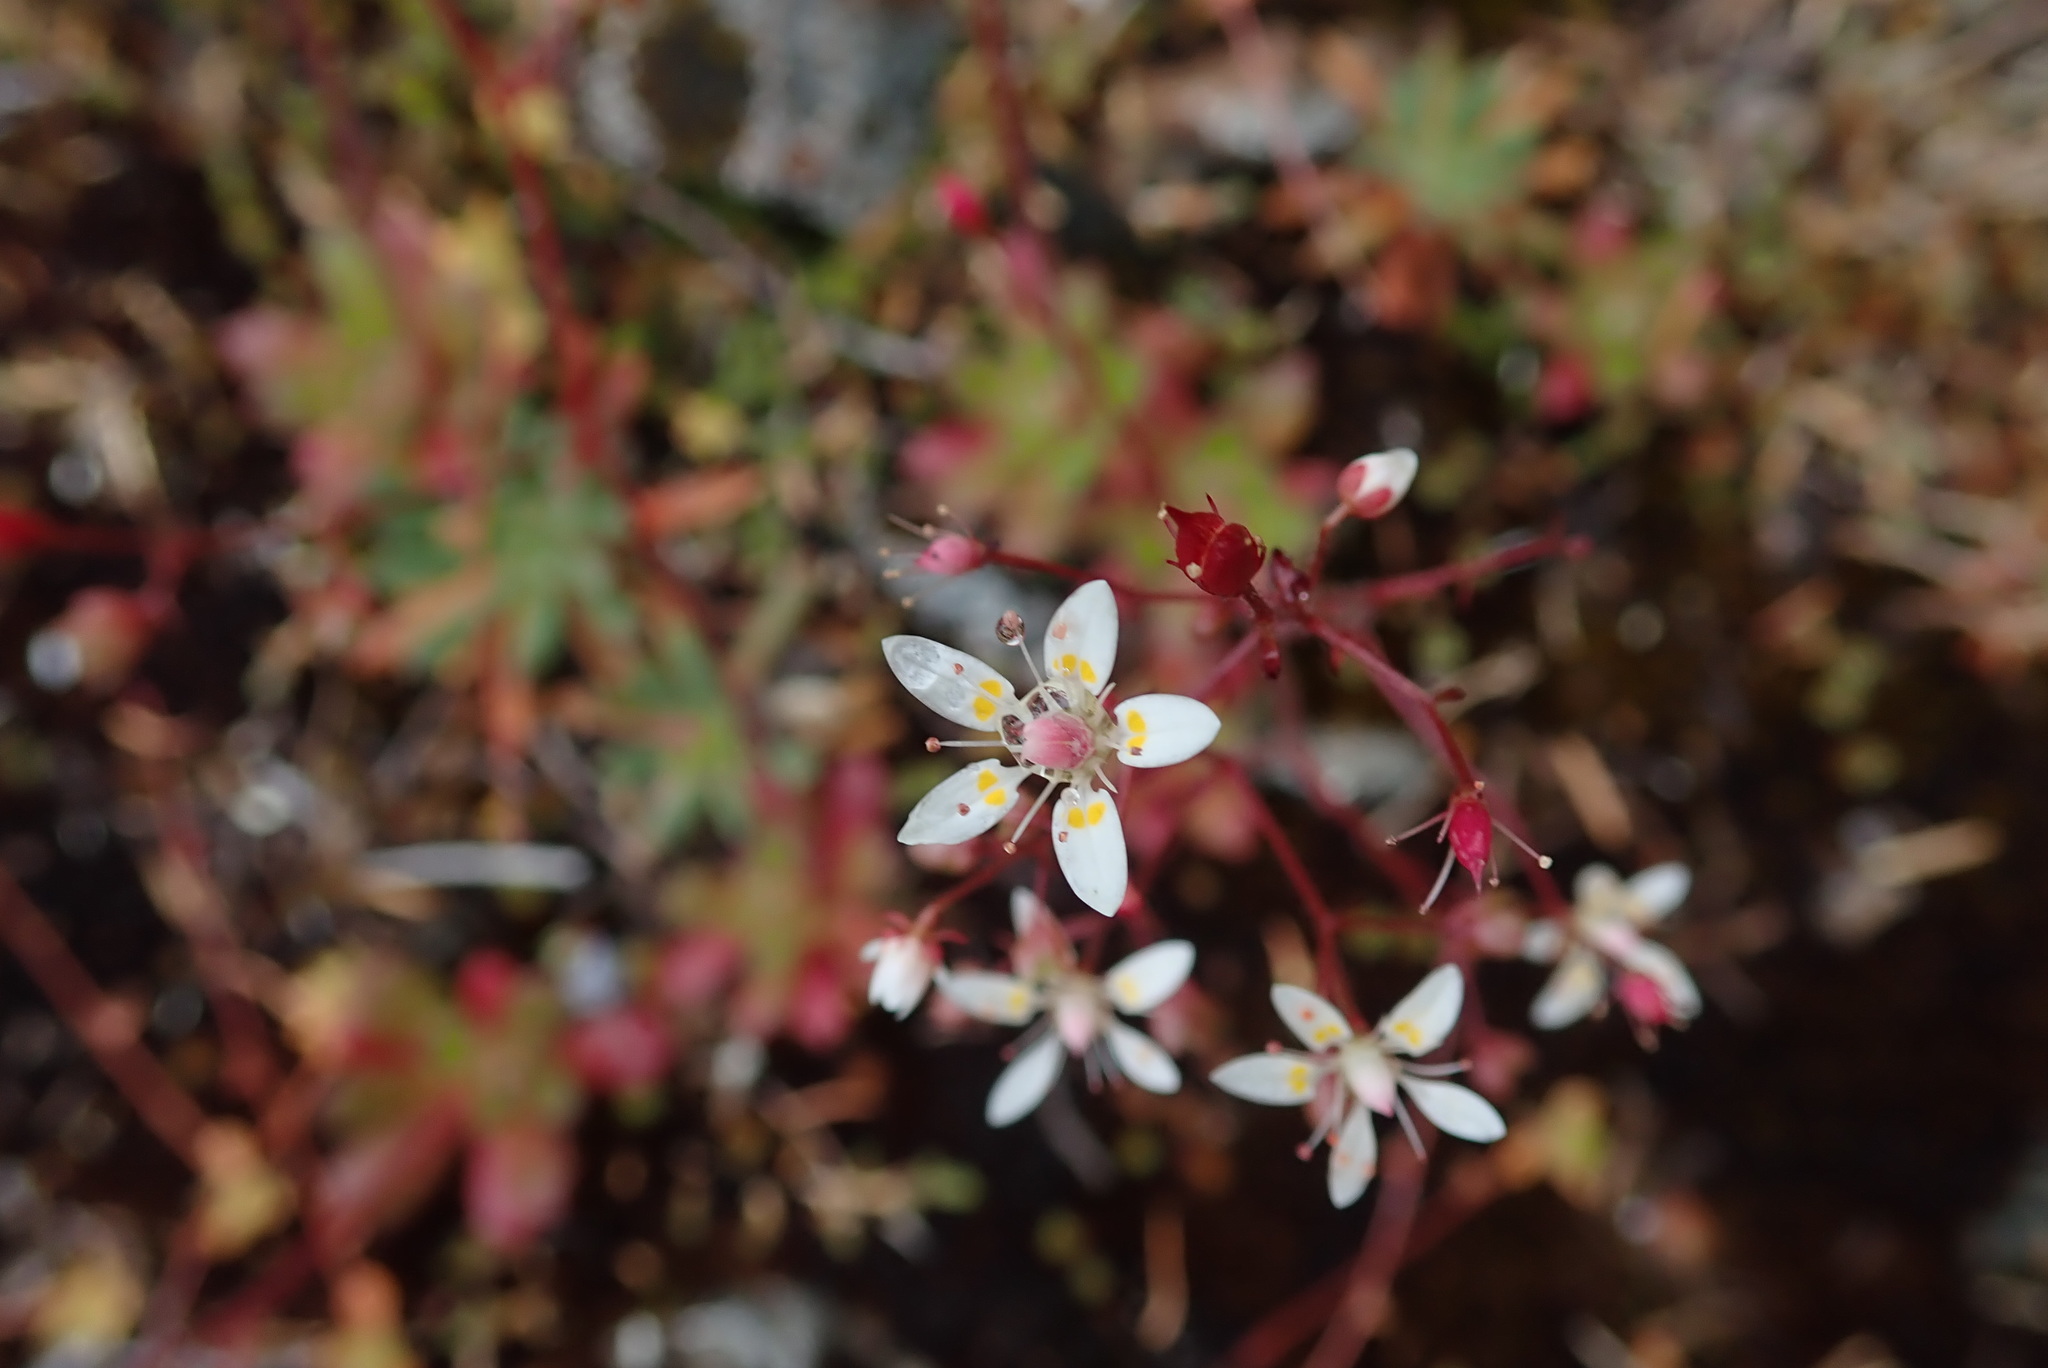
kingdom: Plantae
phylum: Tracheophyta
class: Magnoliopsida
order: Saxifragales
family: Saxifragaceae
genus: Micranthes
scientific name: Micranthes ferruginea
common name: Rusty saxifrage
